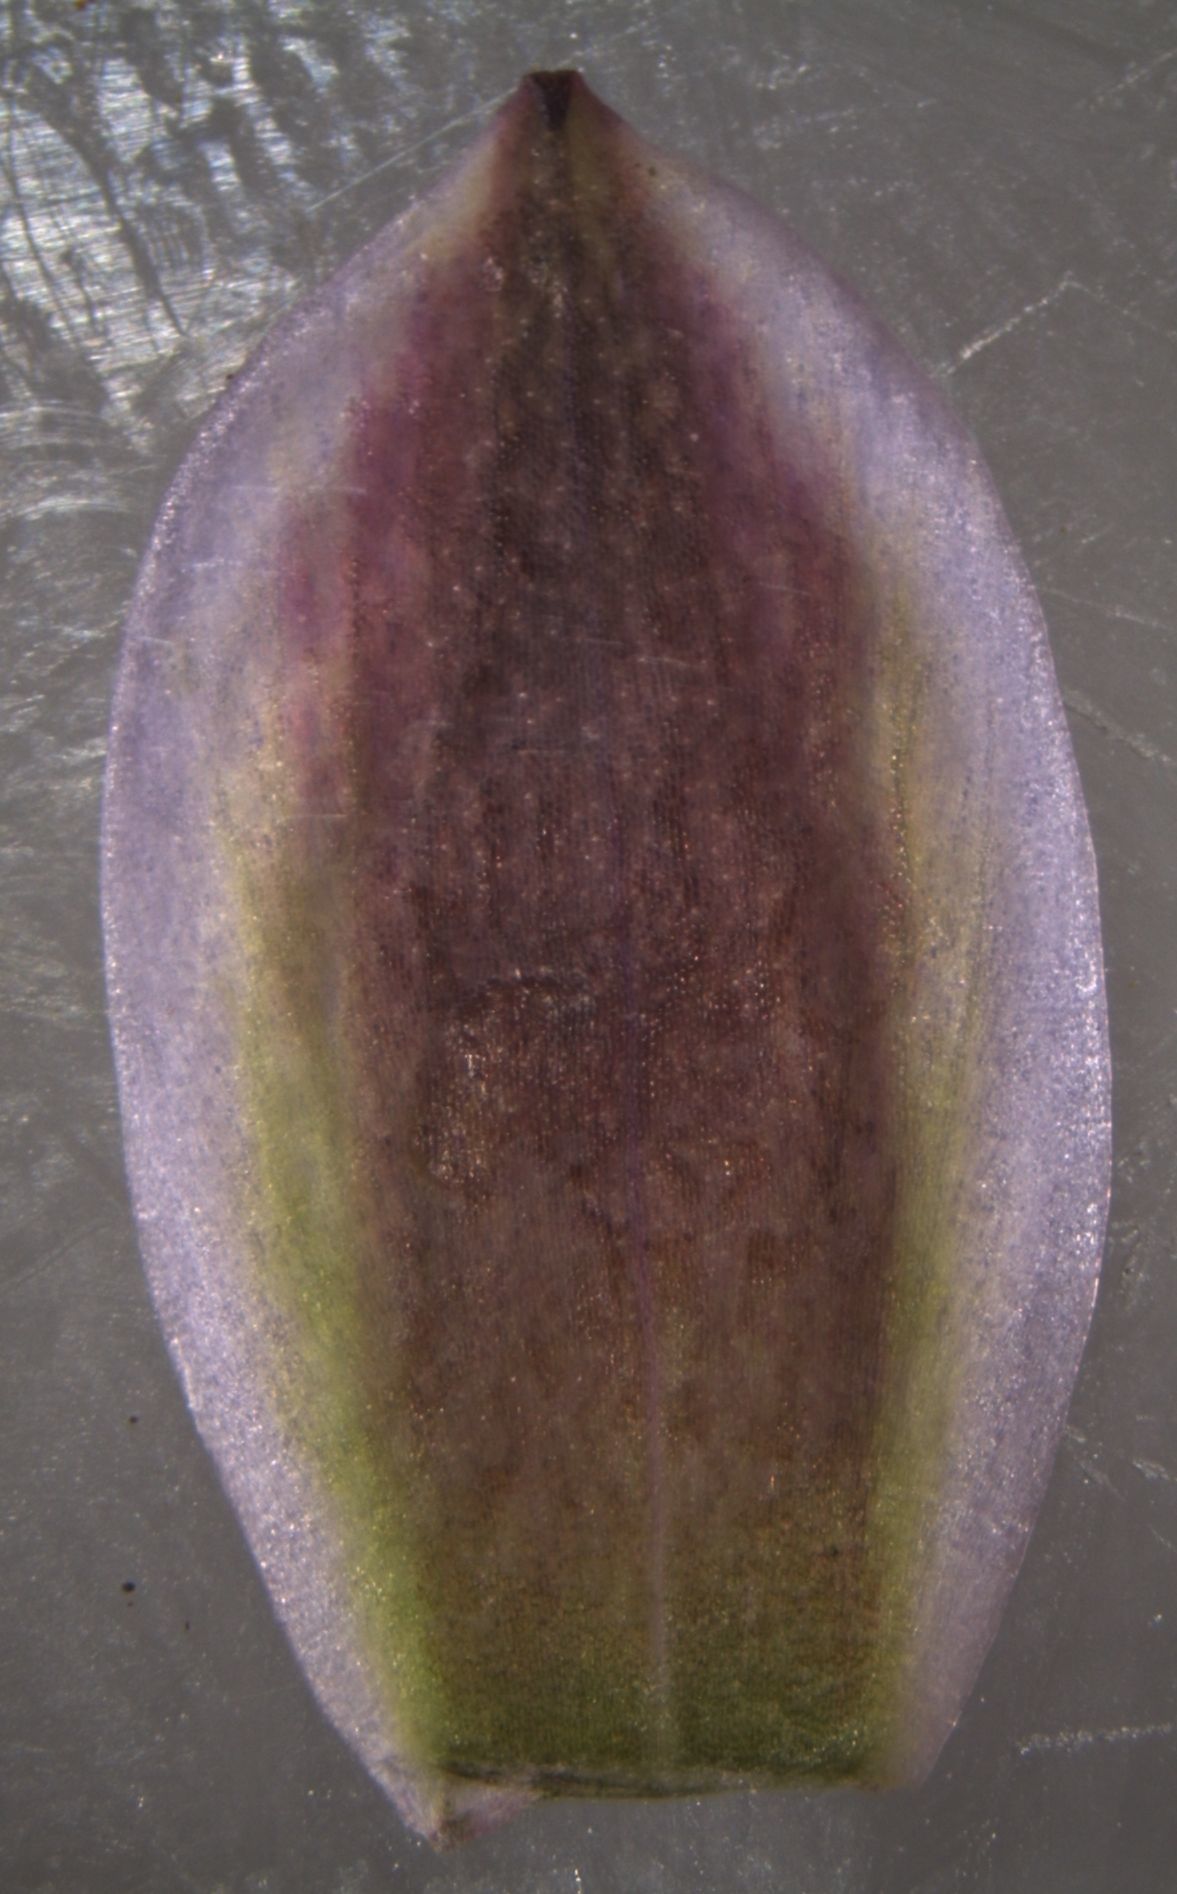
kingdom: Plantae
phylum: Tracheophyta
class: Liliopsida
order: Asparagales
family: Orchidaceae
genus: Thelymitra
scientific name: Thelymitra nervosa
